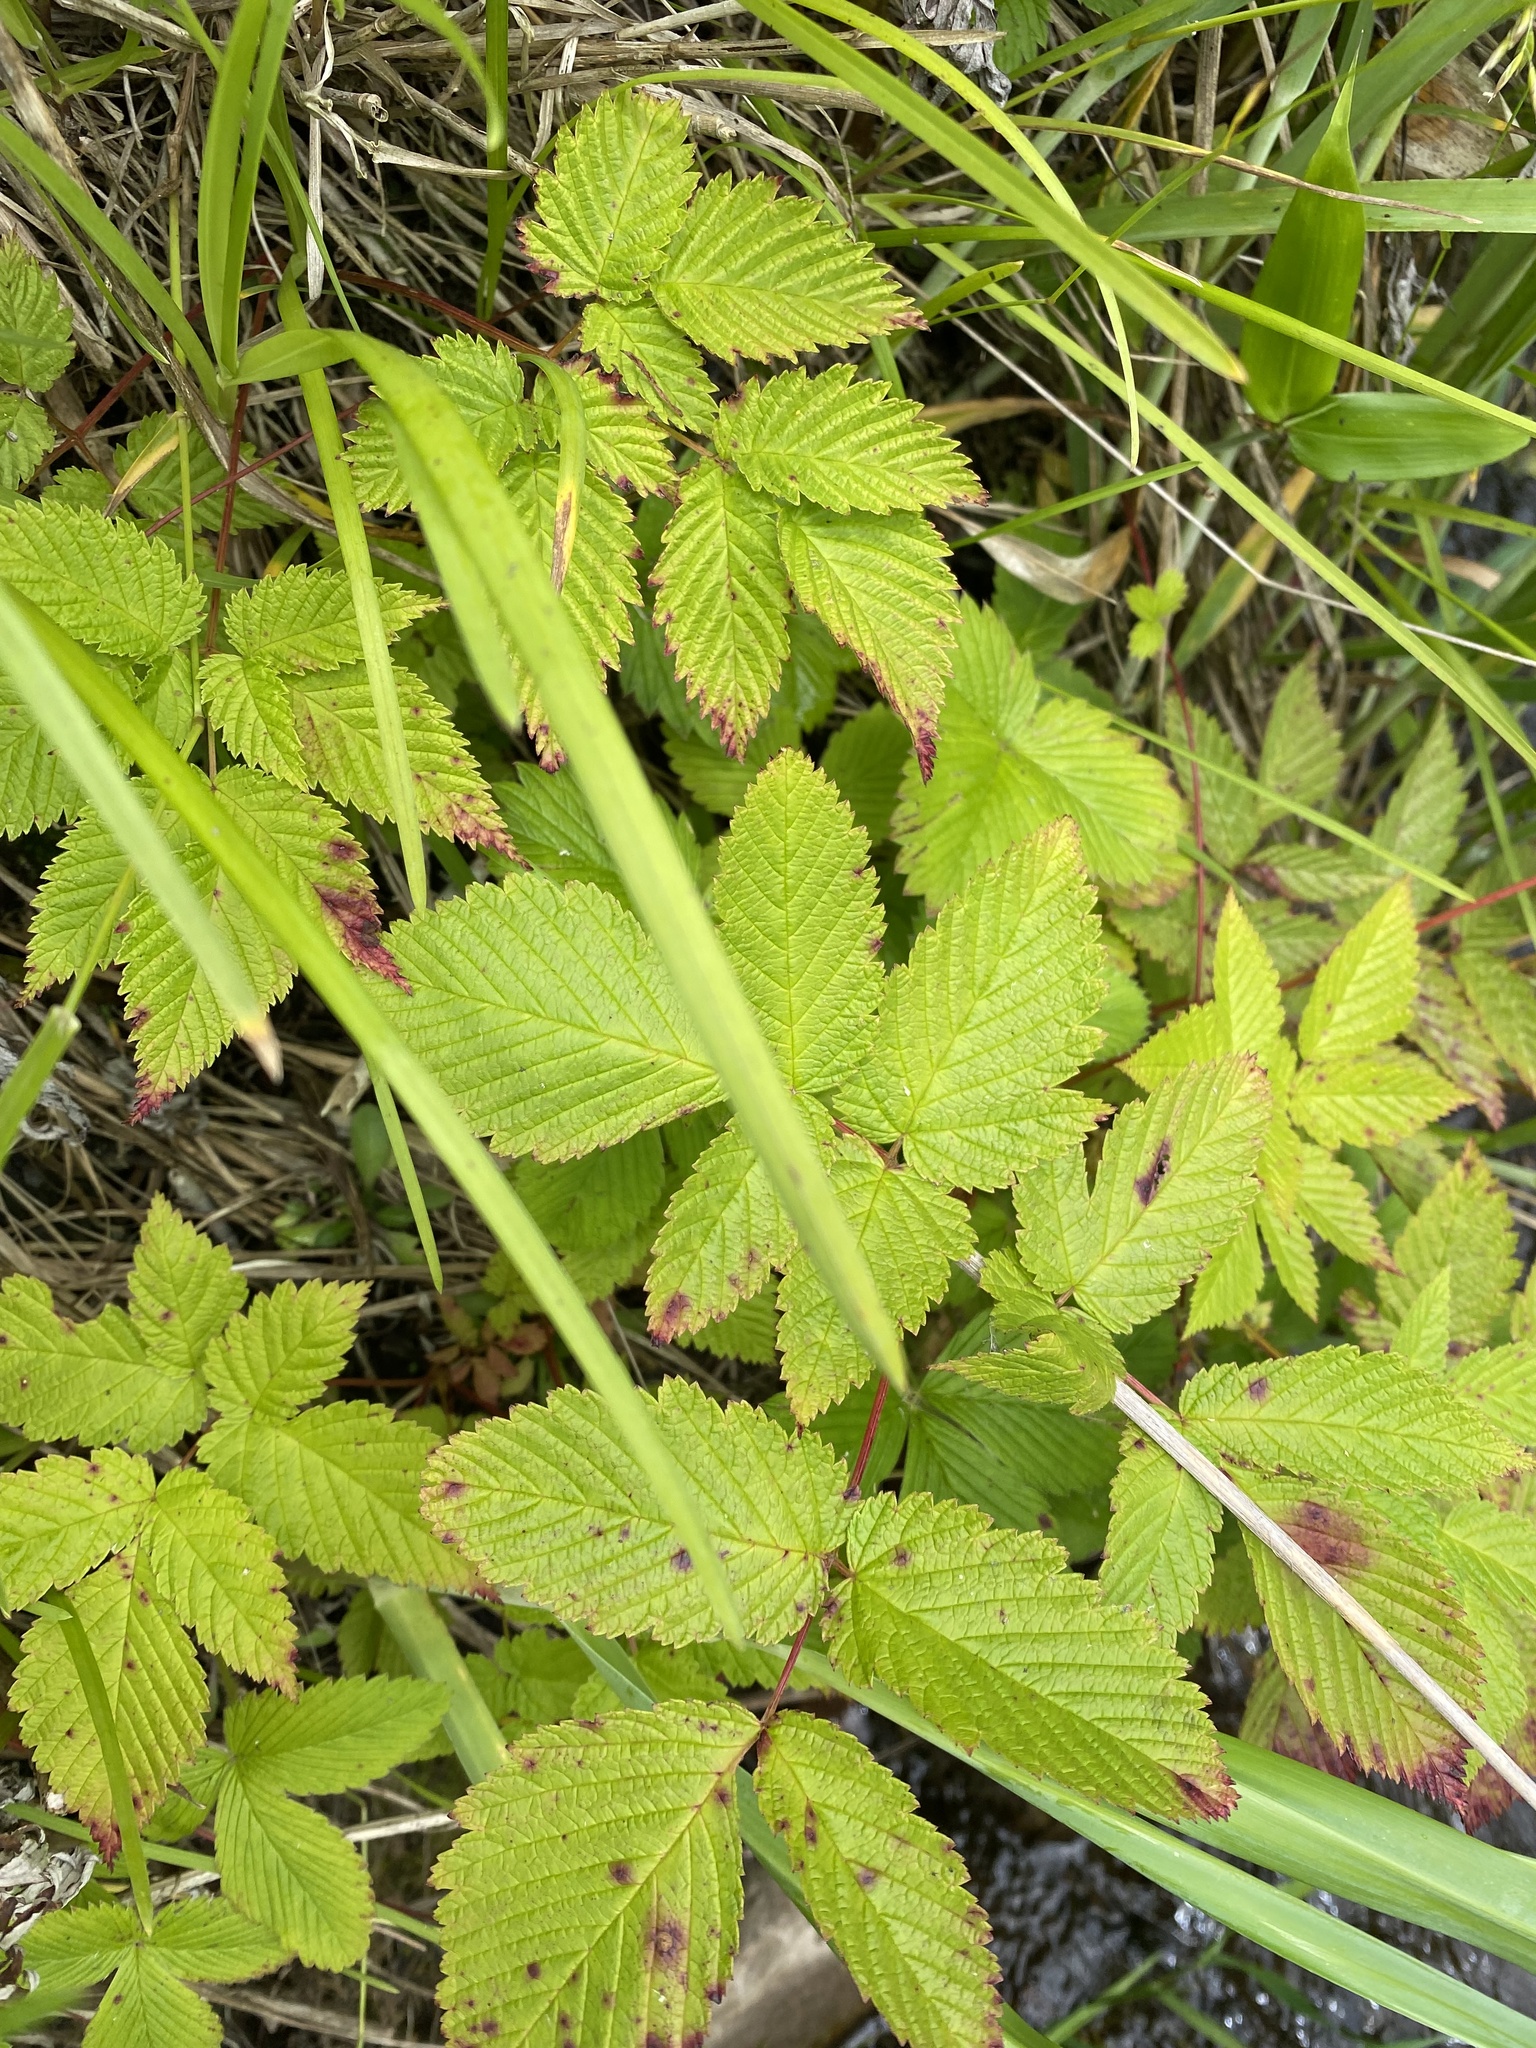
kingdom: Plantae
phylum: Tracheophyta
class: Magnoliopsida
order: Rosales
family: Rosaceae
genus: Aruncus
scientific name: Aruncus dioicus
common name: Buck's-beard
